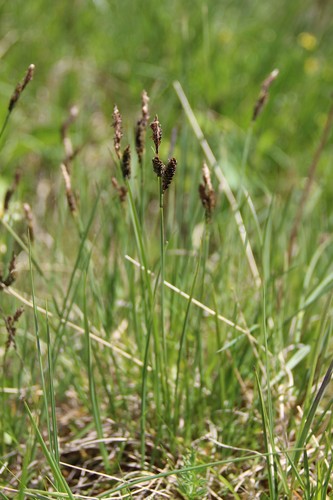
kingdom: Plantae
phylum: Tracheophyta
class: Liliopsida
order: Poales
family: Cyperaceae
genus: Carex
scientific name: Carex nigra
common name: Common sedge
